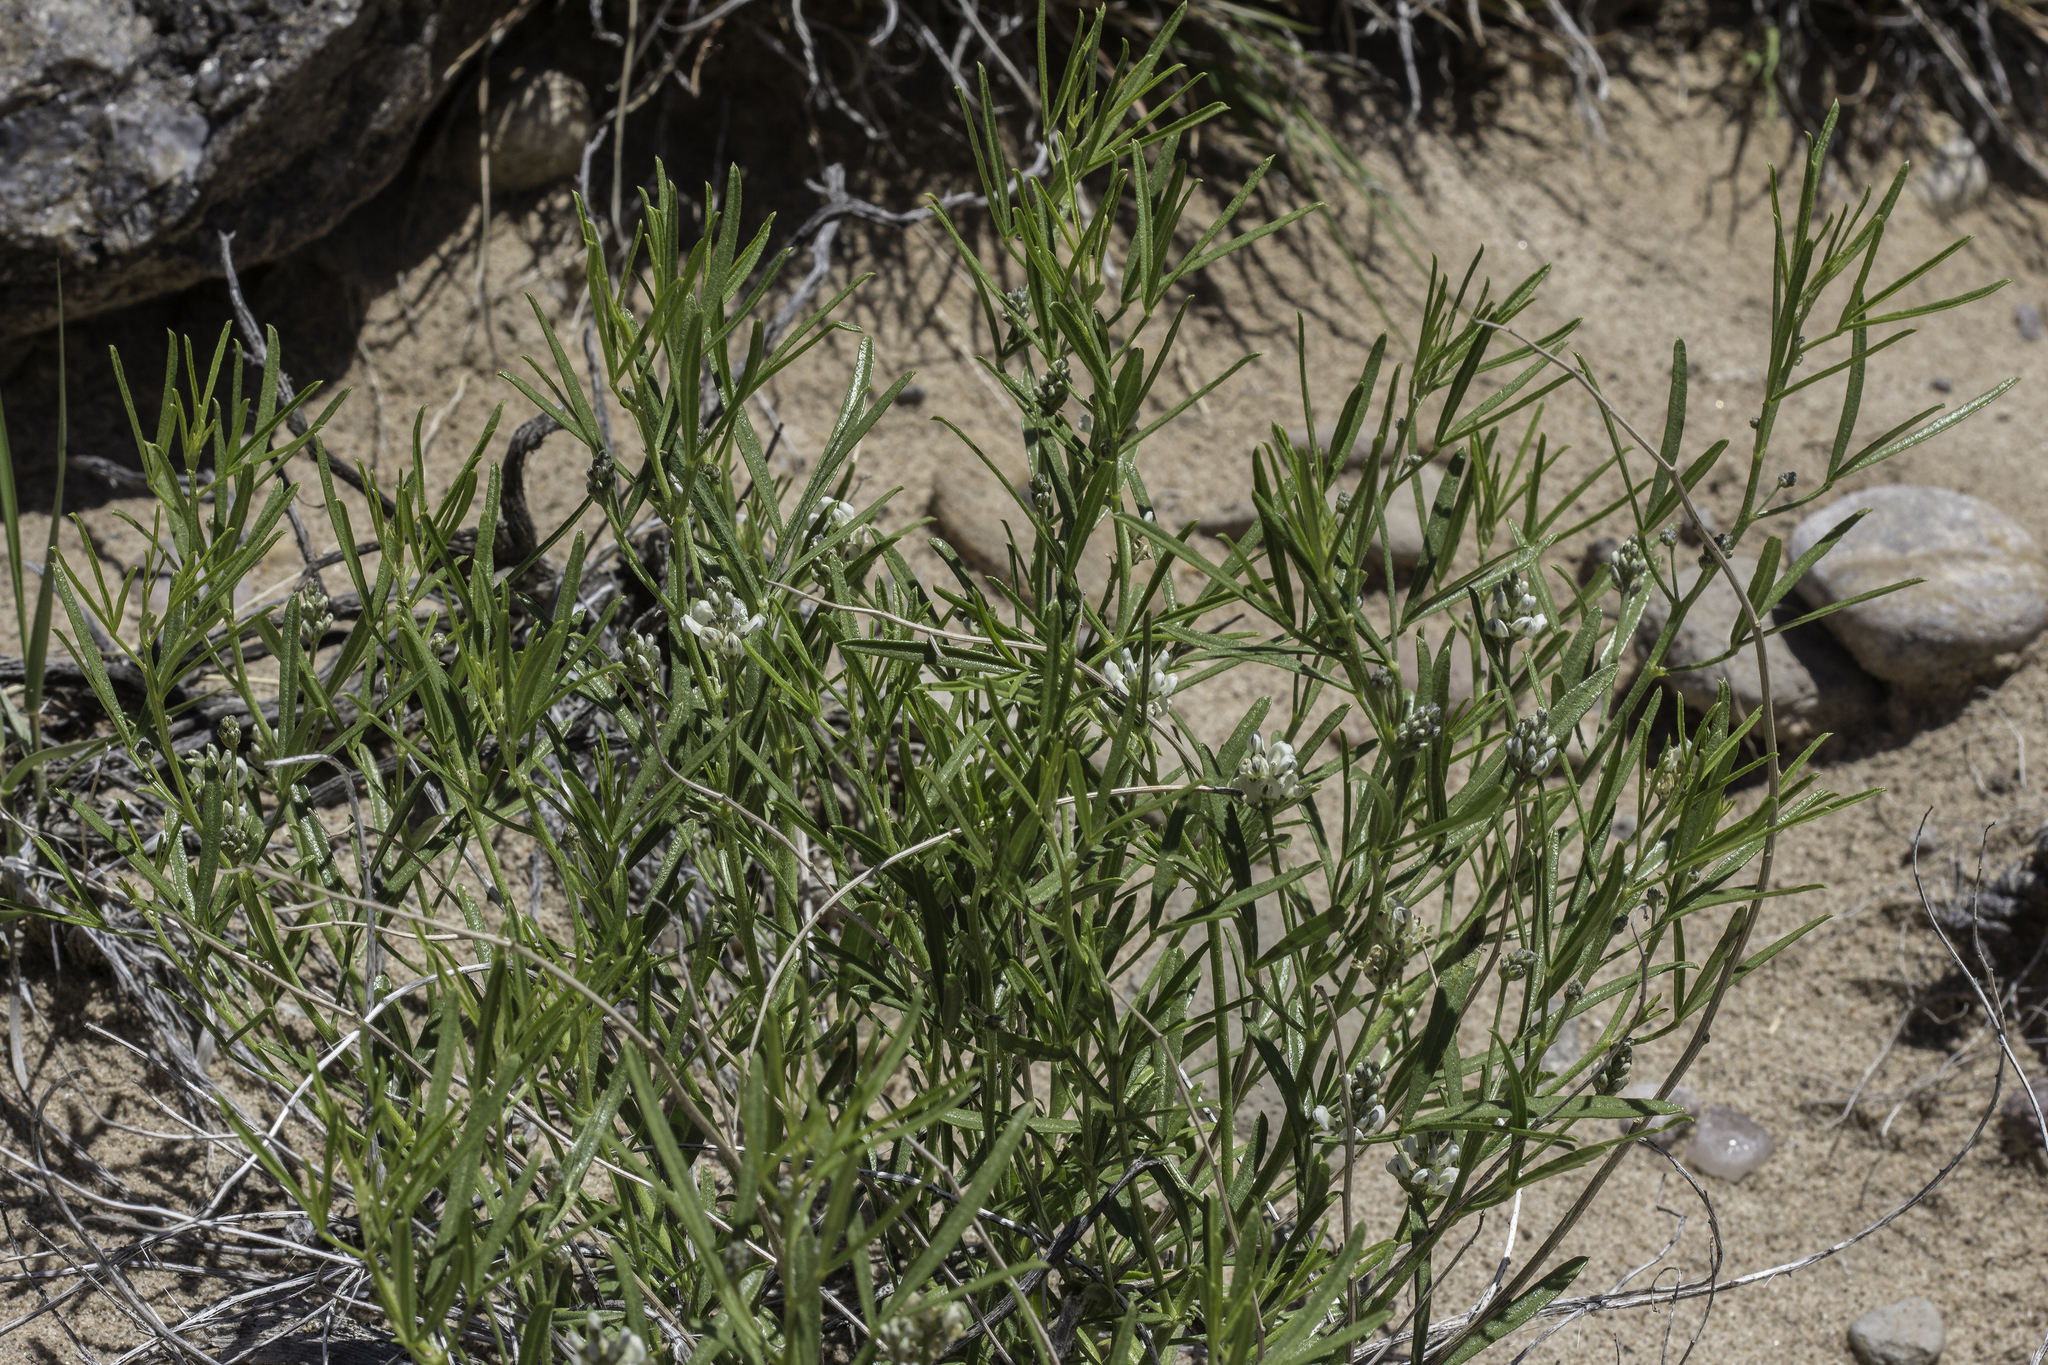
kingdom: Plantae
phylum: Tracheophyta
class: Magnoliopsida
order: Fabales
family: Fabaceae
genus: Ladeania
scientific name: Ladeania lanceolata
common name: Dune scurf-pea
